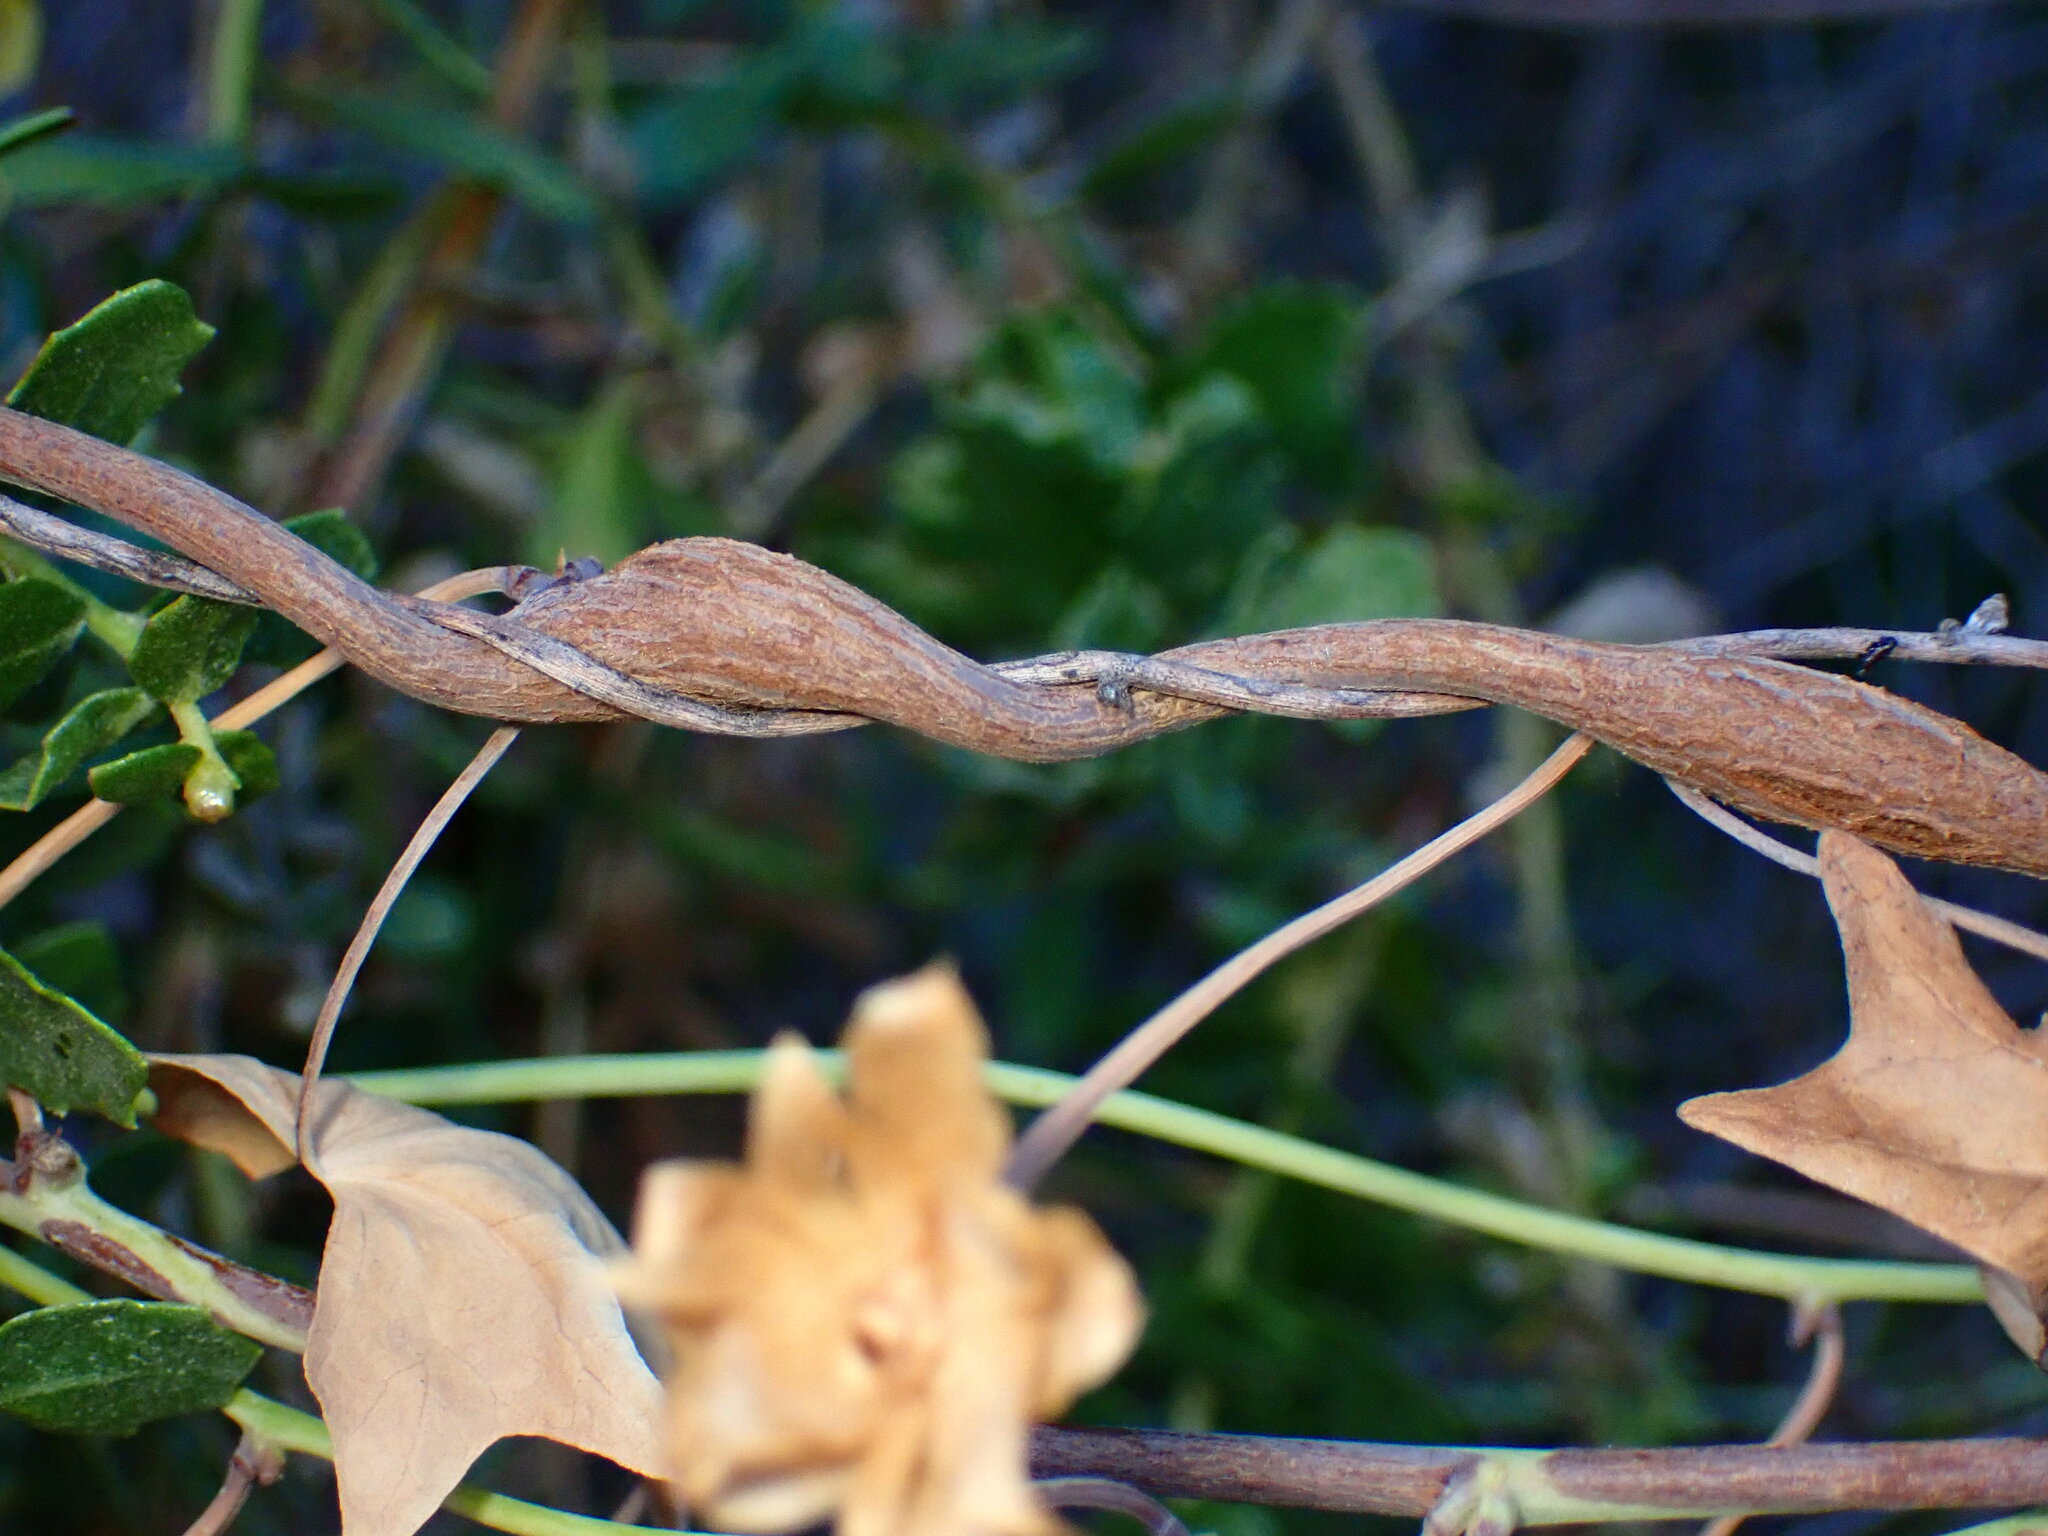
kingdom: Animalia
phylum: Arthropoda
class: Insecta
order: Diptera
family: Cecidomyiidae
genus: Neolasioptera
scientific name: Neolasioptera convolvuli
